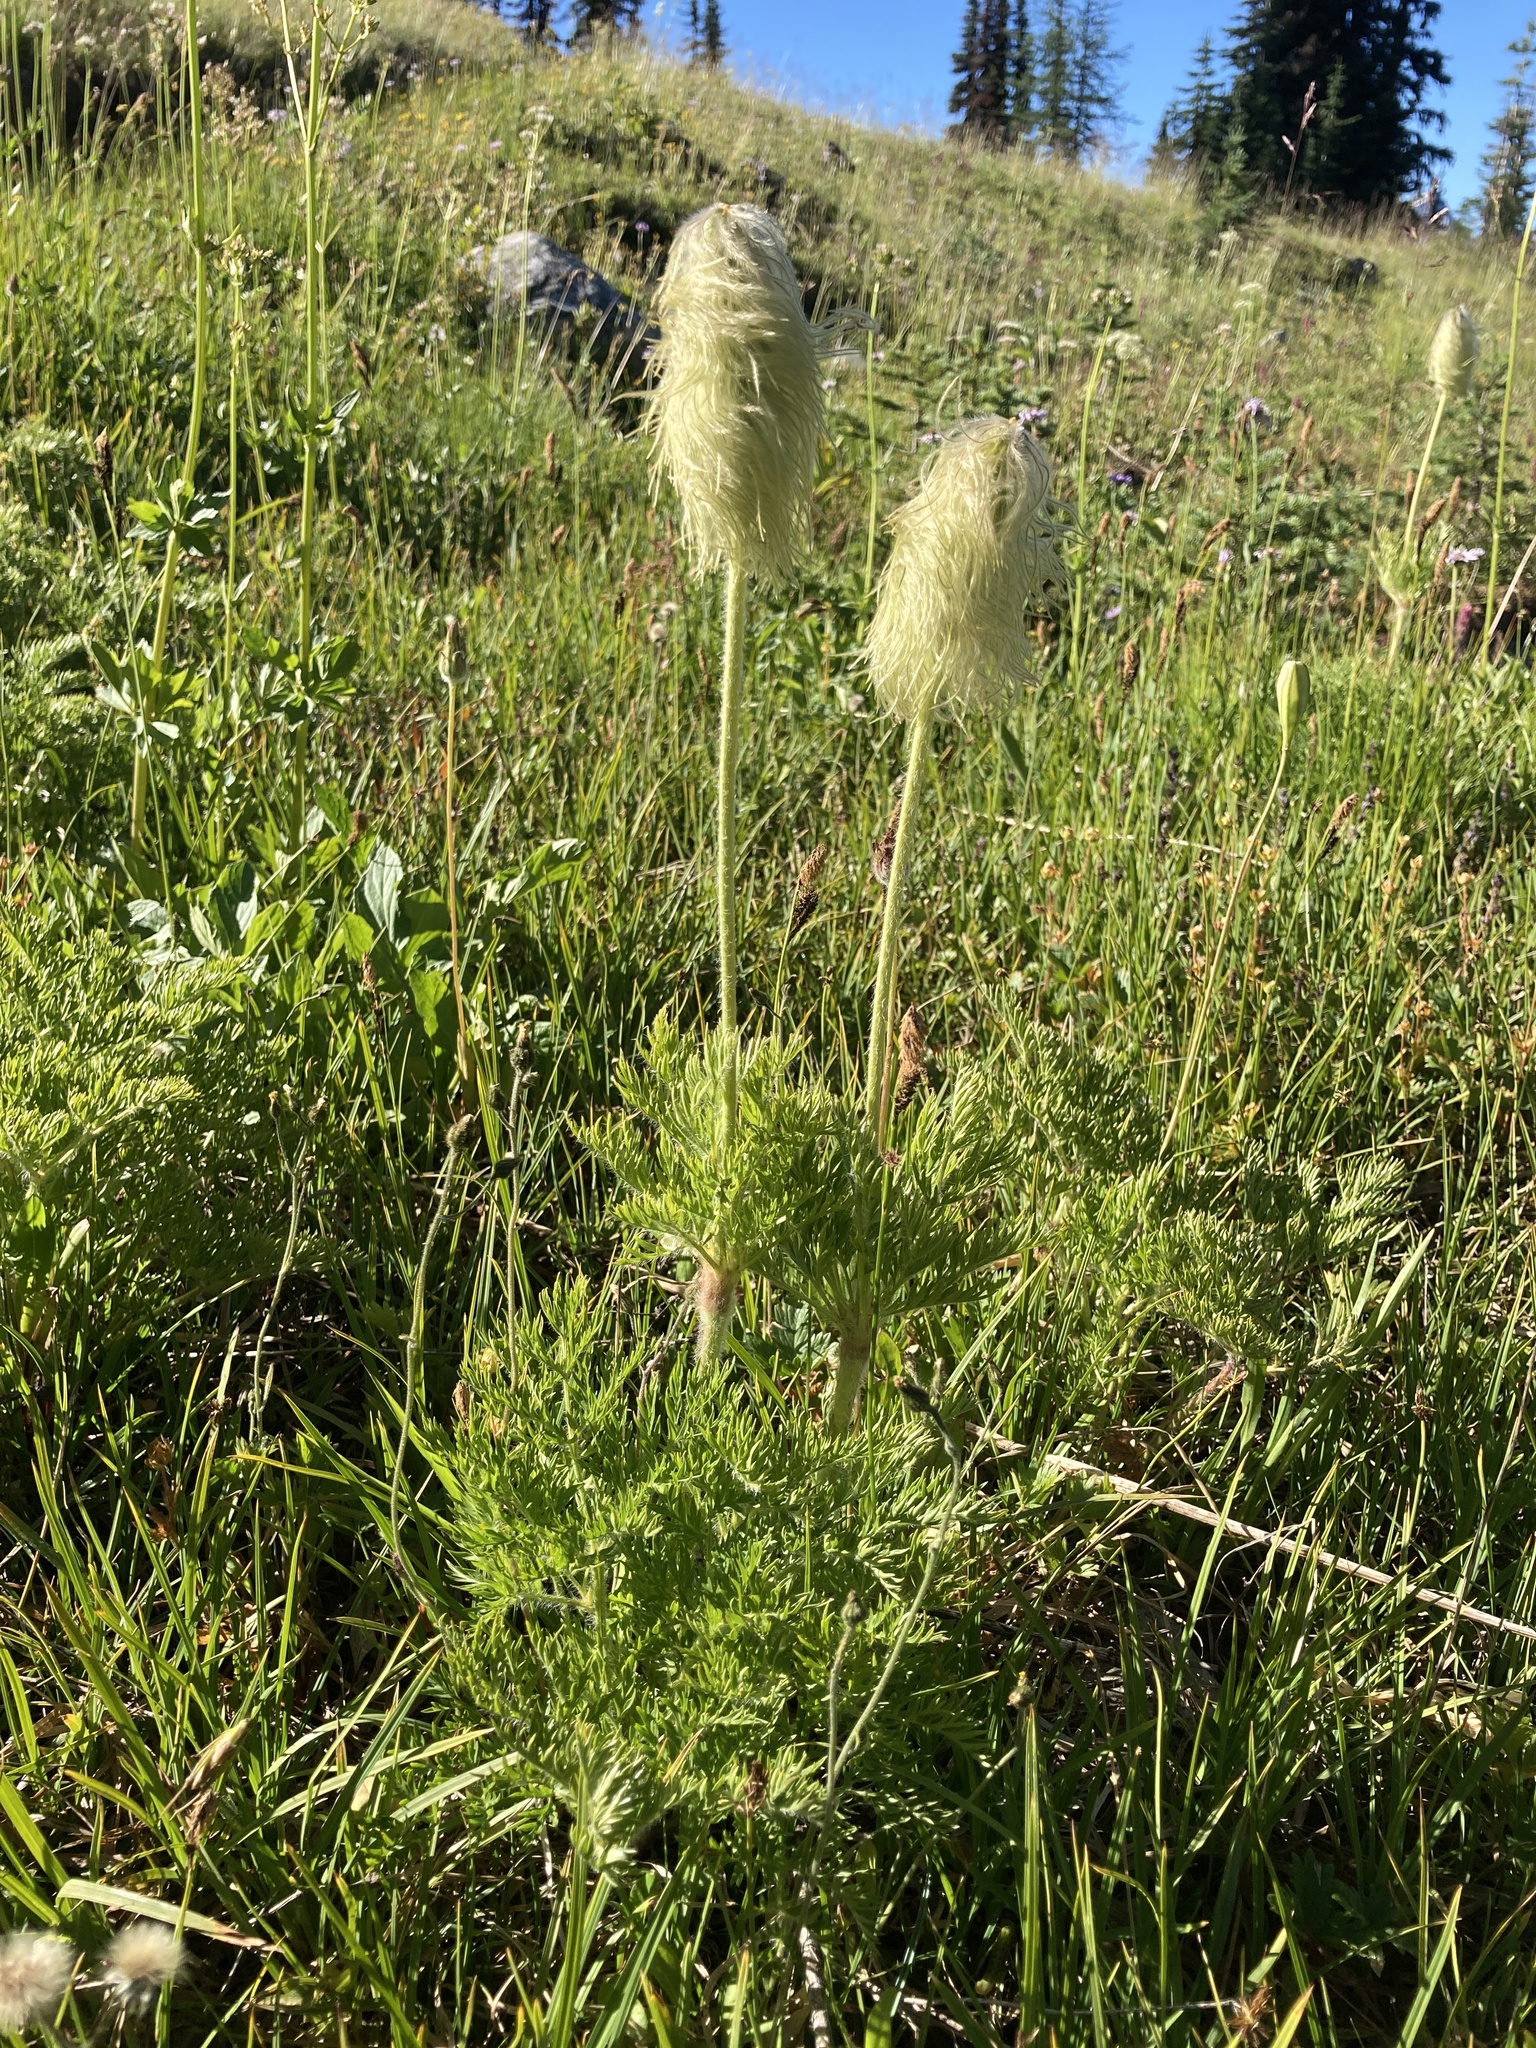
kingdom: Plantae
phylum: Tracheophyta
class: Magnoliopsida
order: Ranunculales
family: Ranunculaceae
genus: Pulsatilla
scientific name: Pulsatilla occidentalis
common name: Mountain pasqueflower
